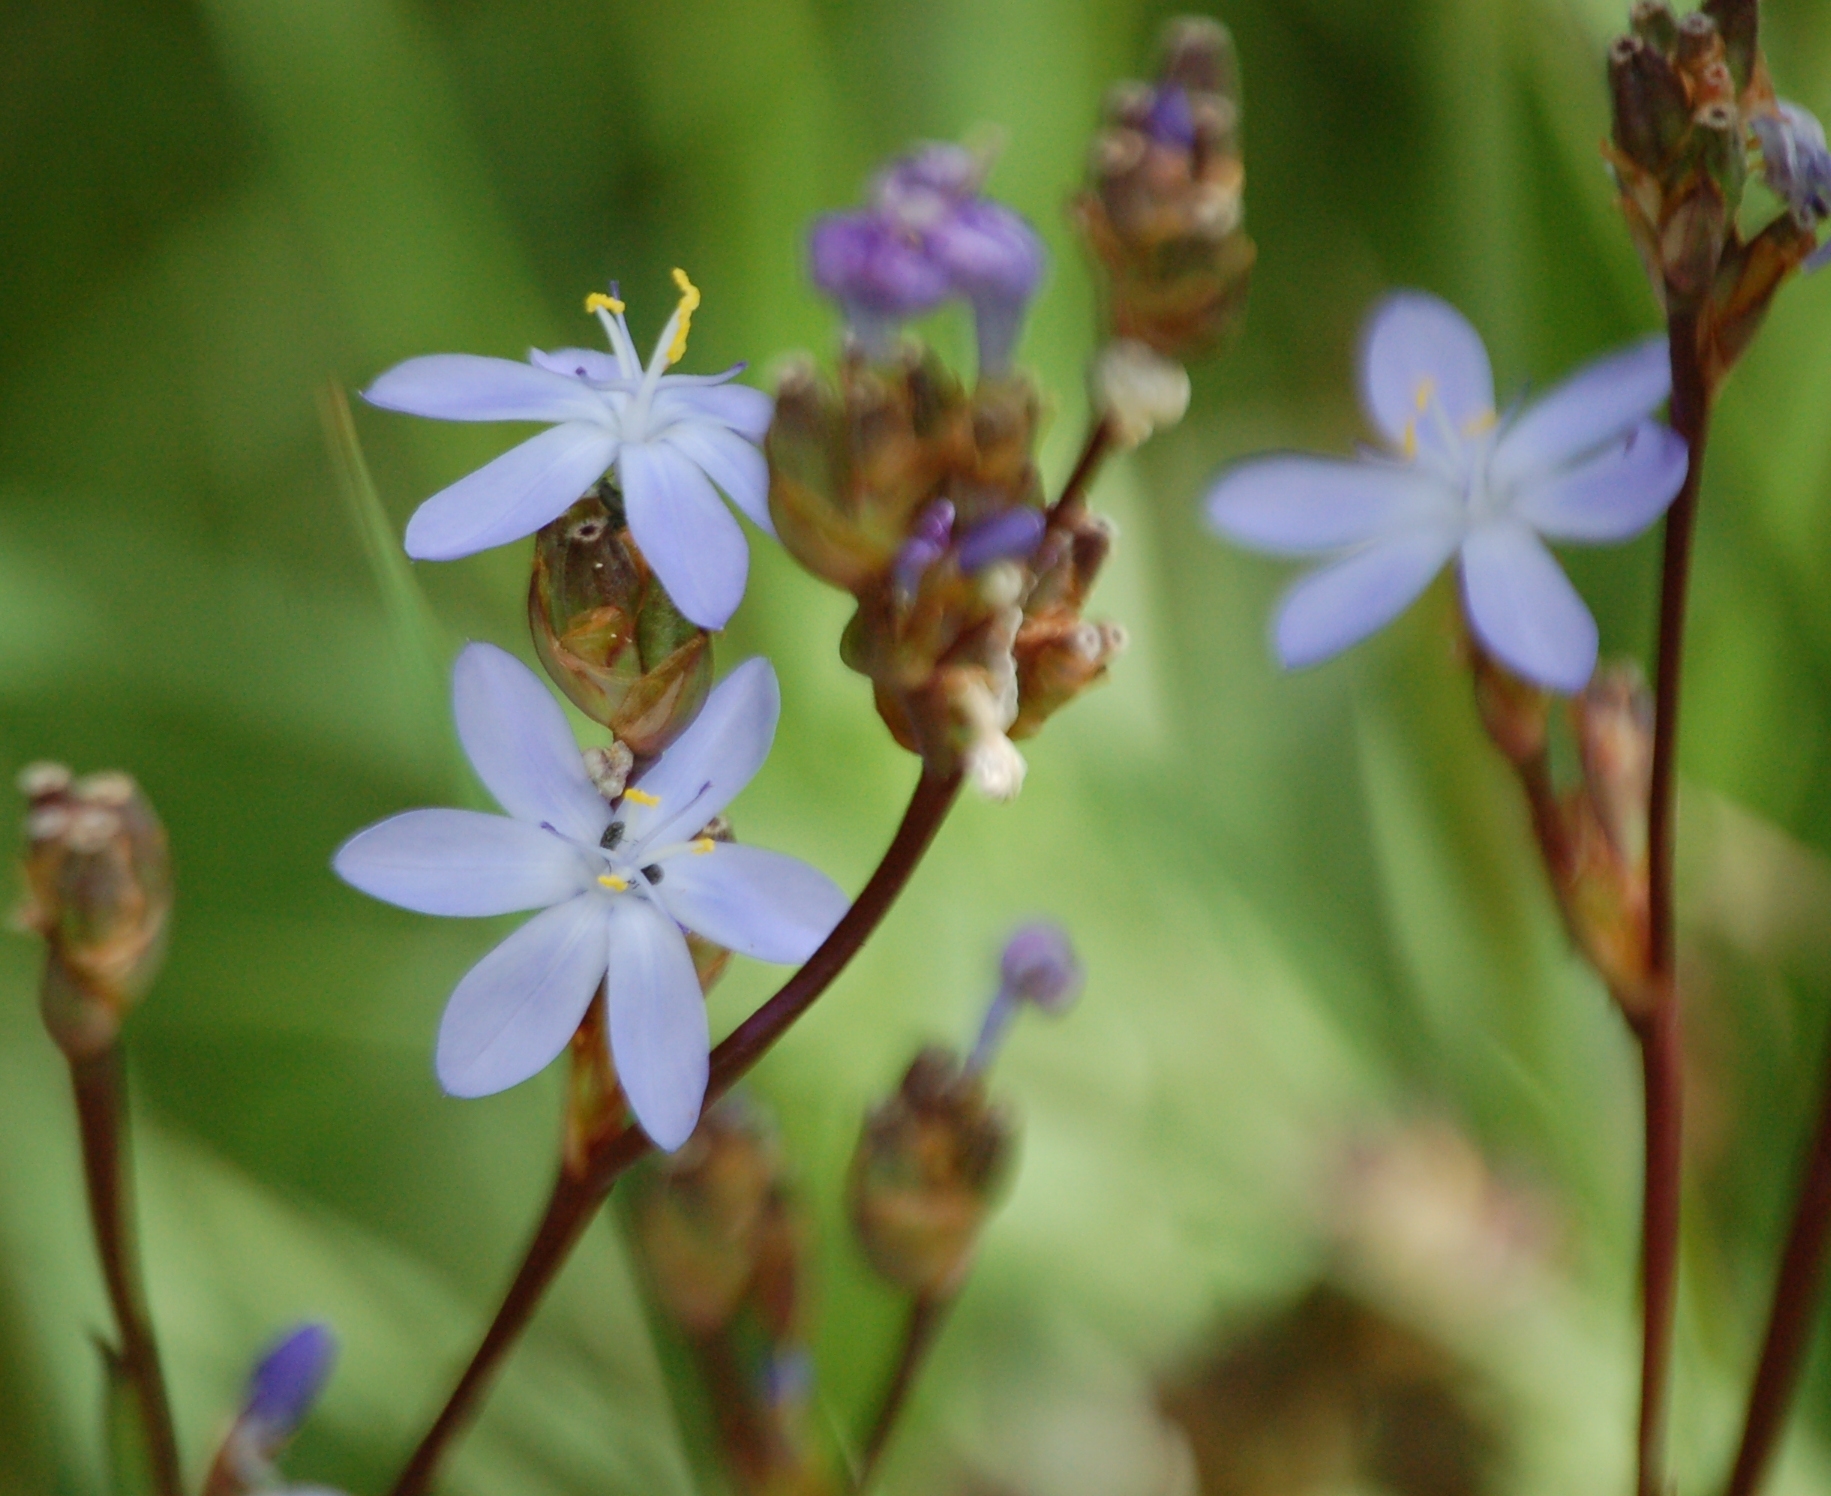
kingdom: Plantae
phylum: Tracheophyta
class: Liliopsida
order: Asparagales
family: Iridaceae
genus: Orthrosanthus
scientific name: Orthrosanthus monadelphus
